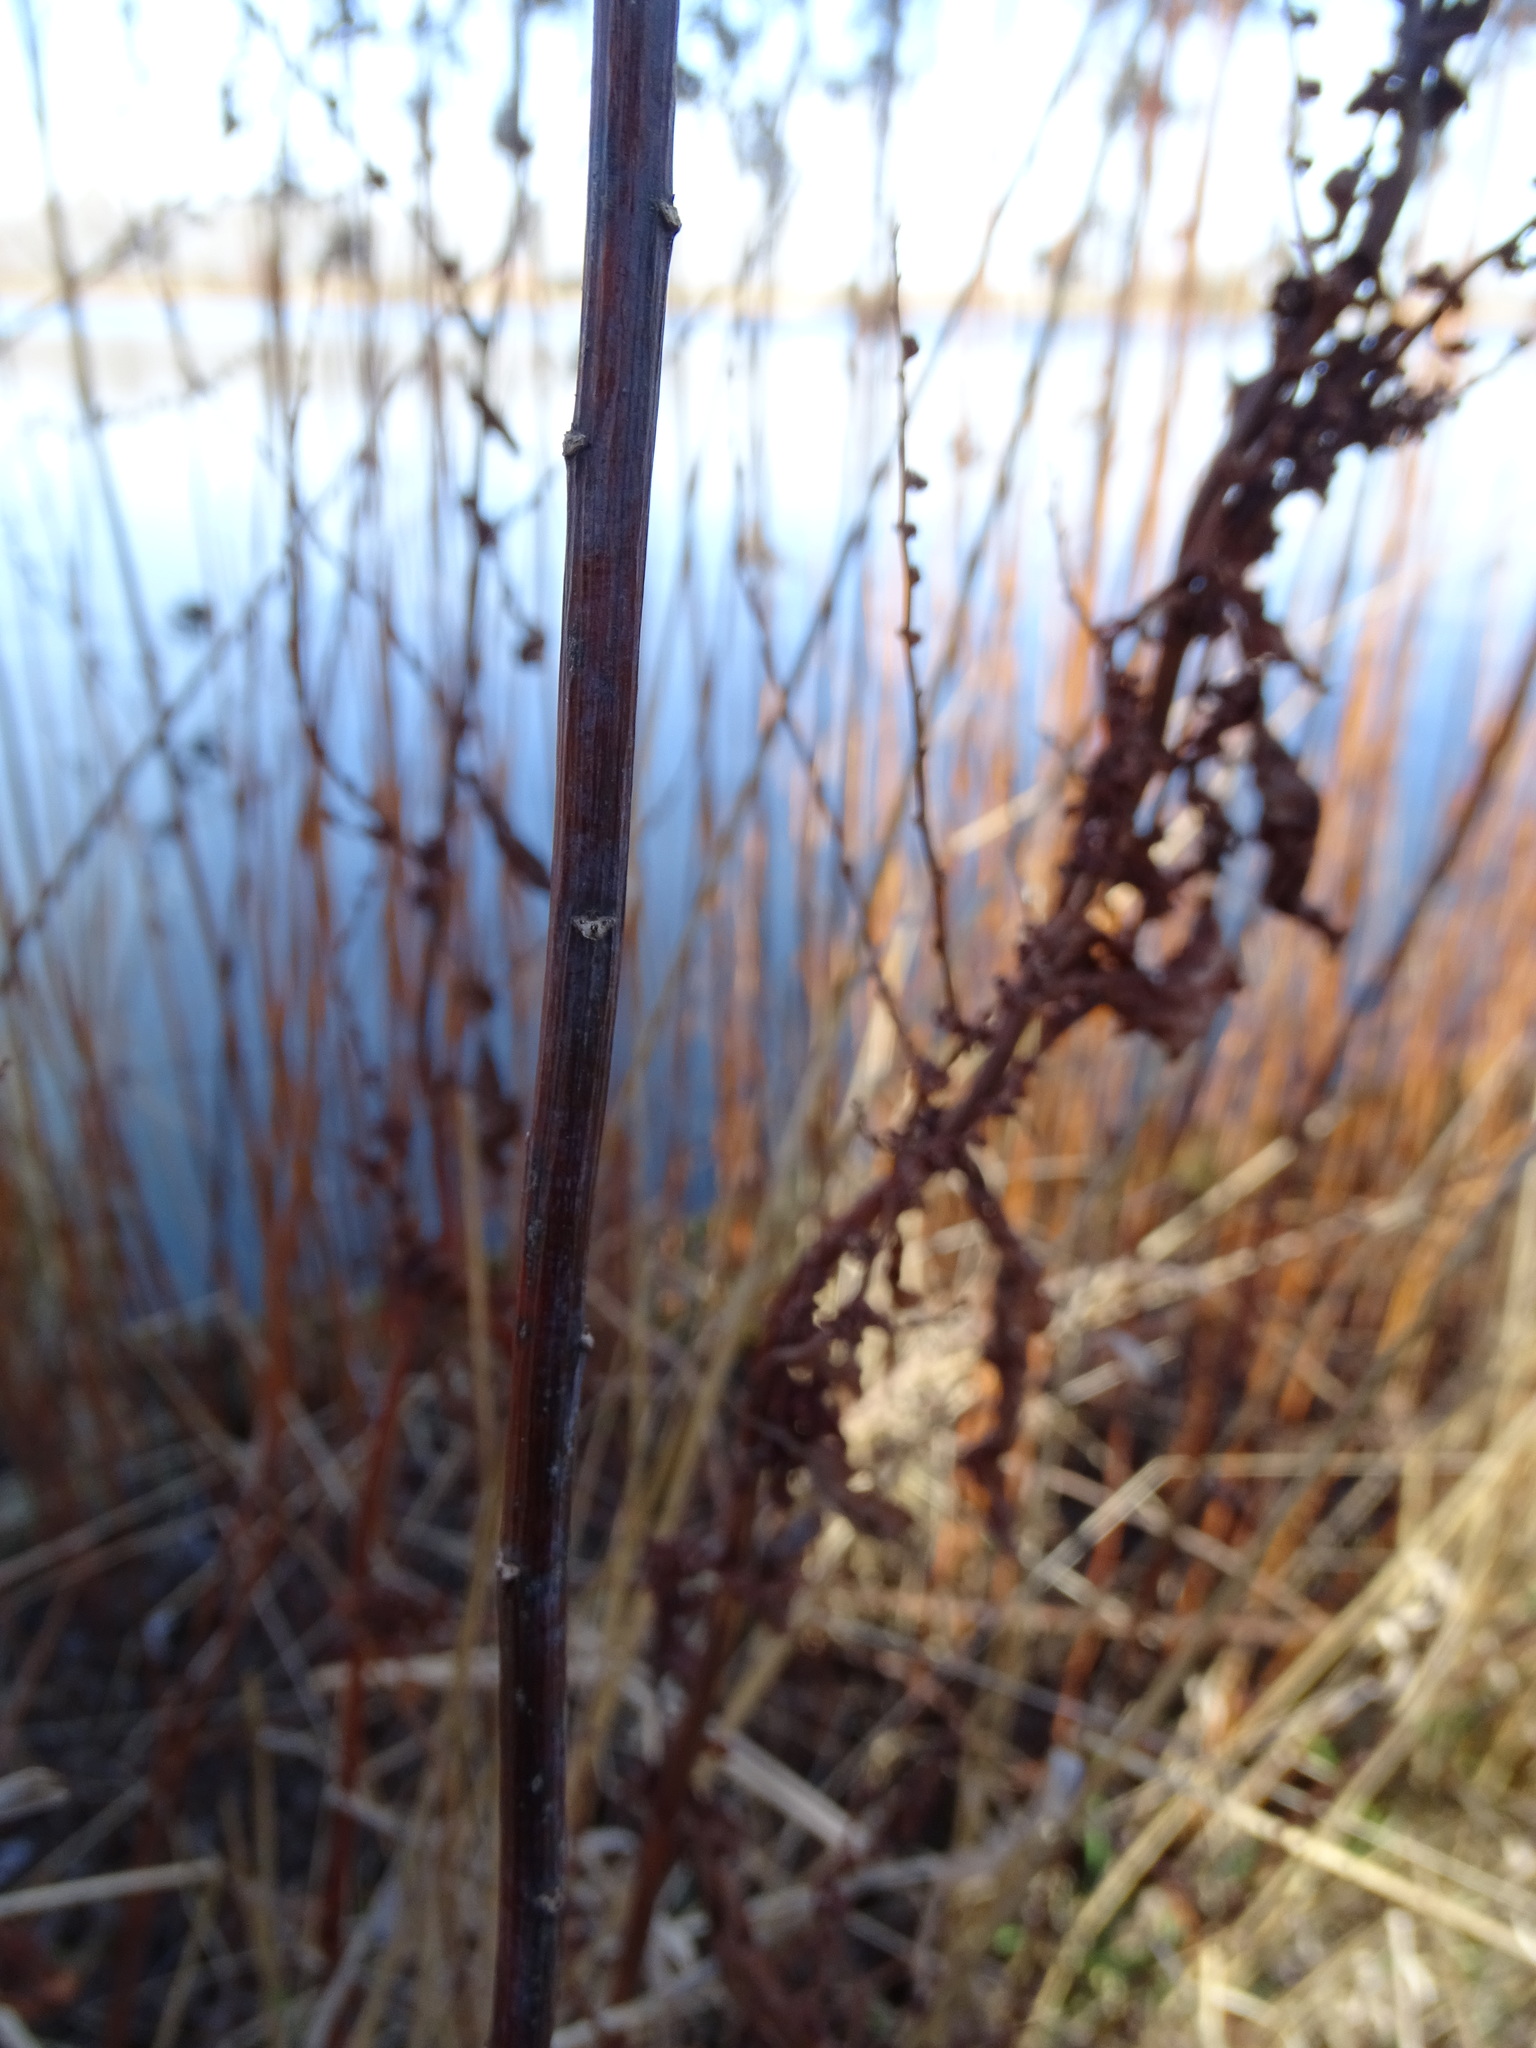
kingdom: Plantae
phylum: Tracheophyta
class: Magnoliopsida
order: Asterales
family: Asteraceae
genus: Solidago
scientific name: Solidago gigantea
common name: Giant goldenrod
